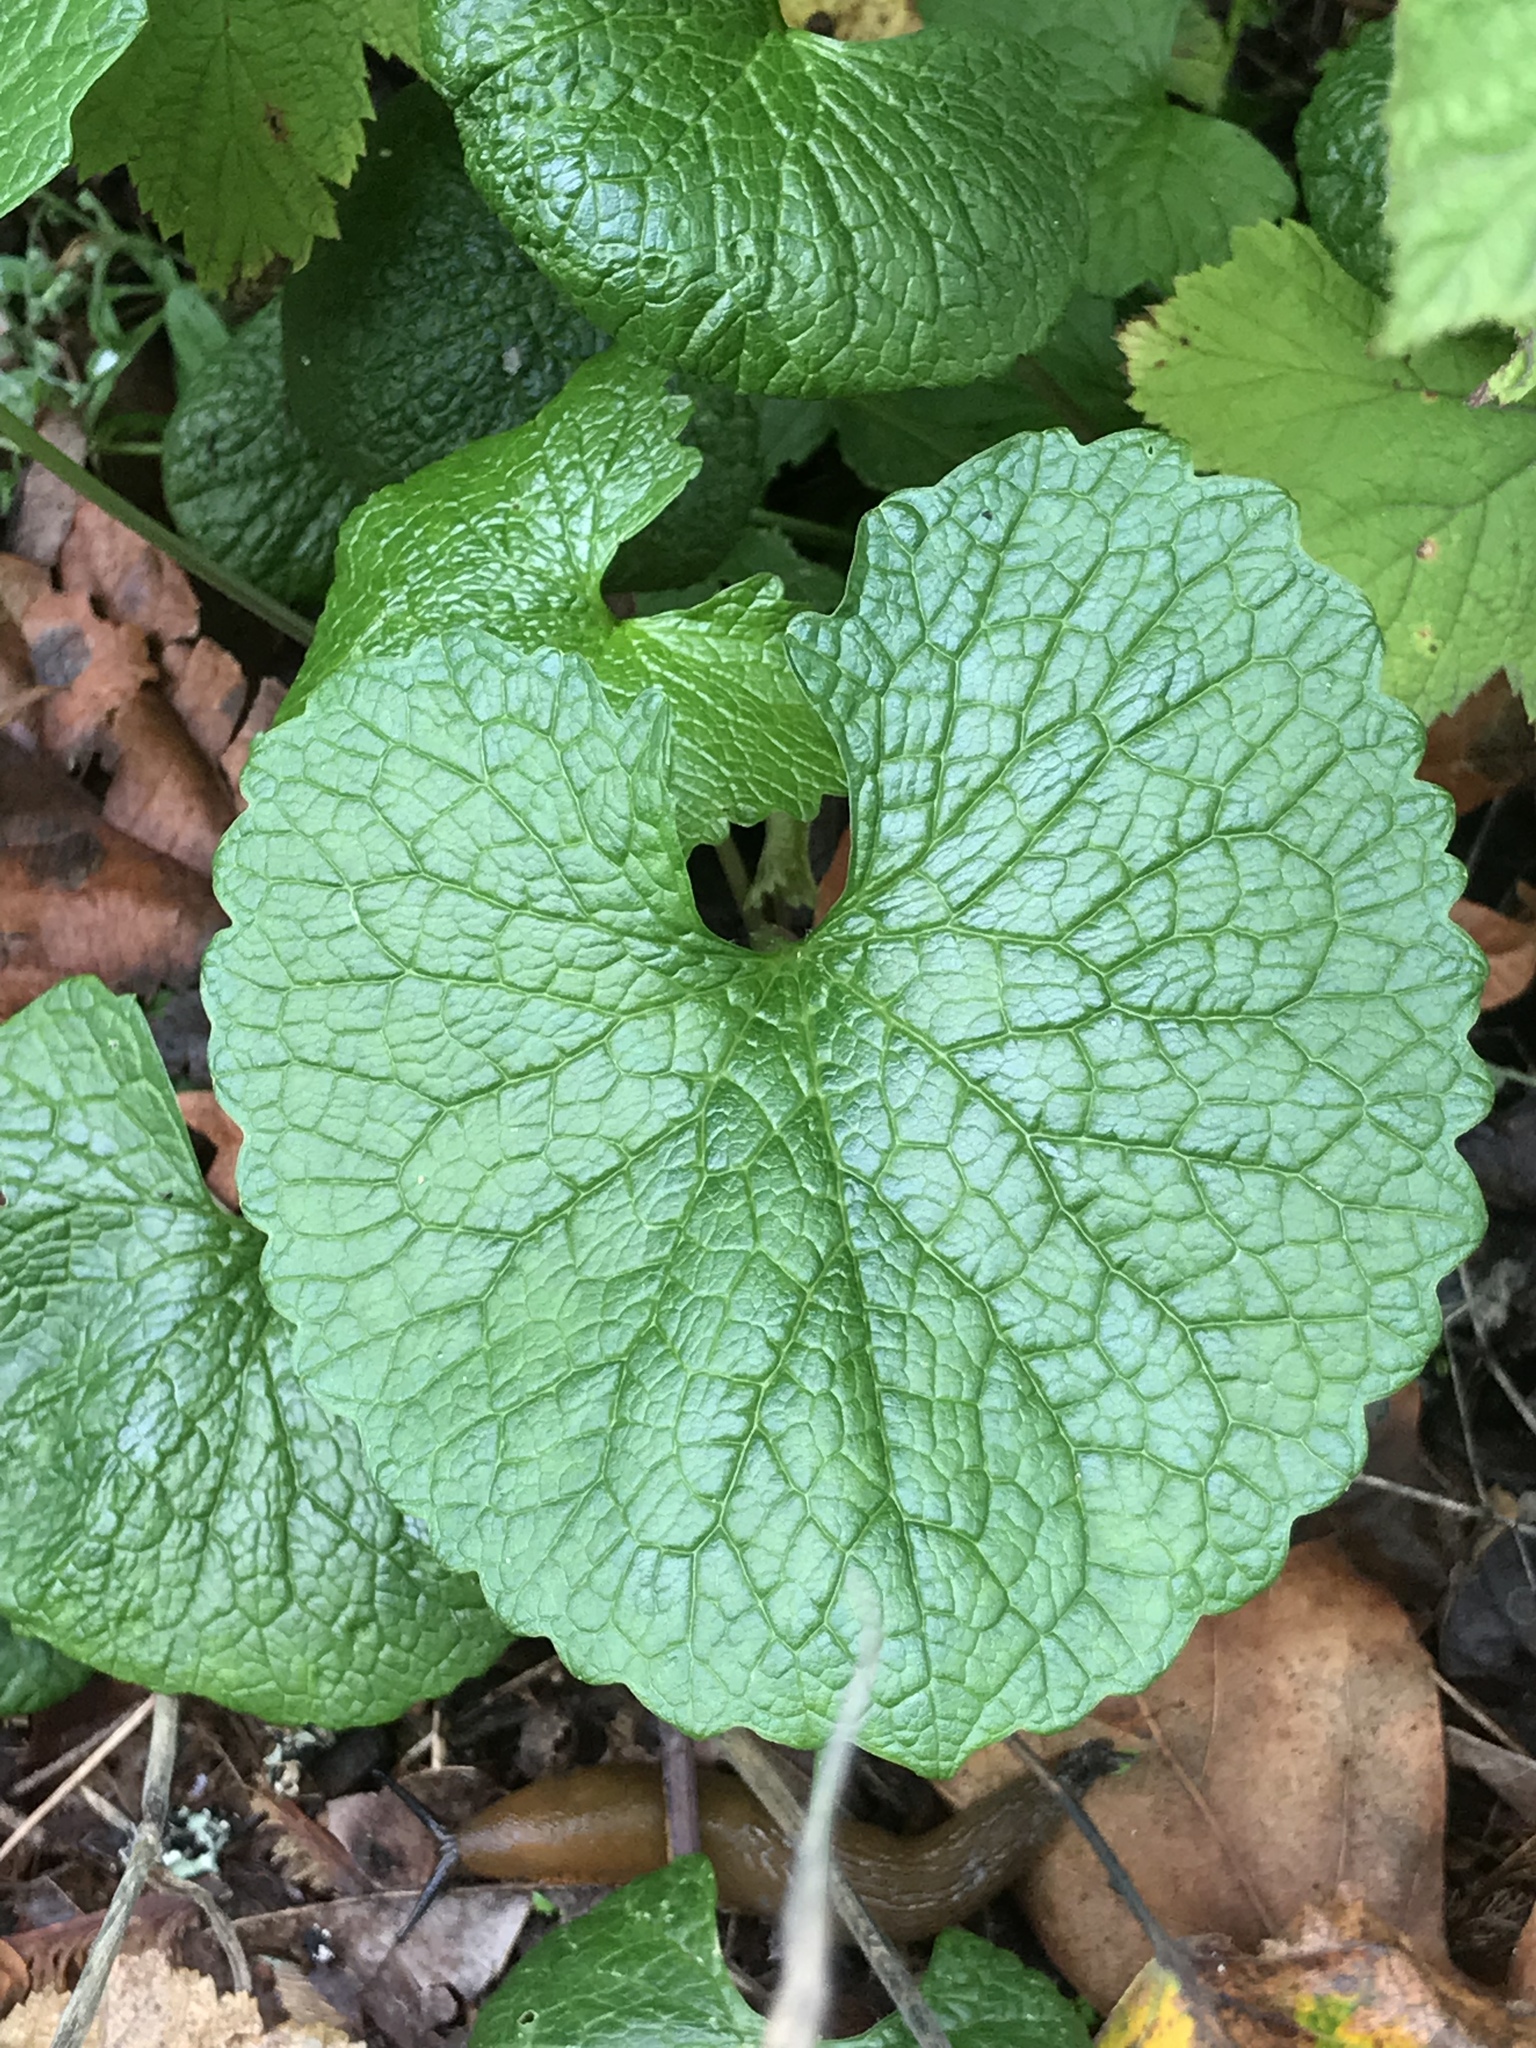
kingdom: Plantae
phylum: Tracheophyta
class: Magnoliopsida
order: Brassicales
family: Brassicaceae
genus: Alliaria
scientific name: Alliaria petiolata
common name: Garlic mustard
